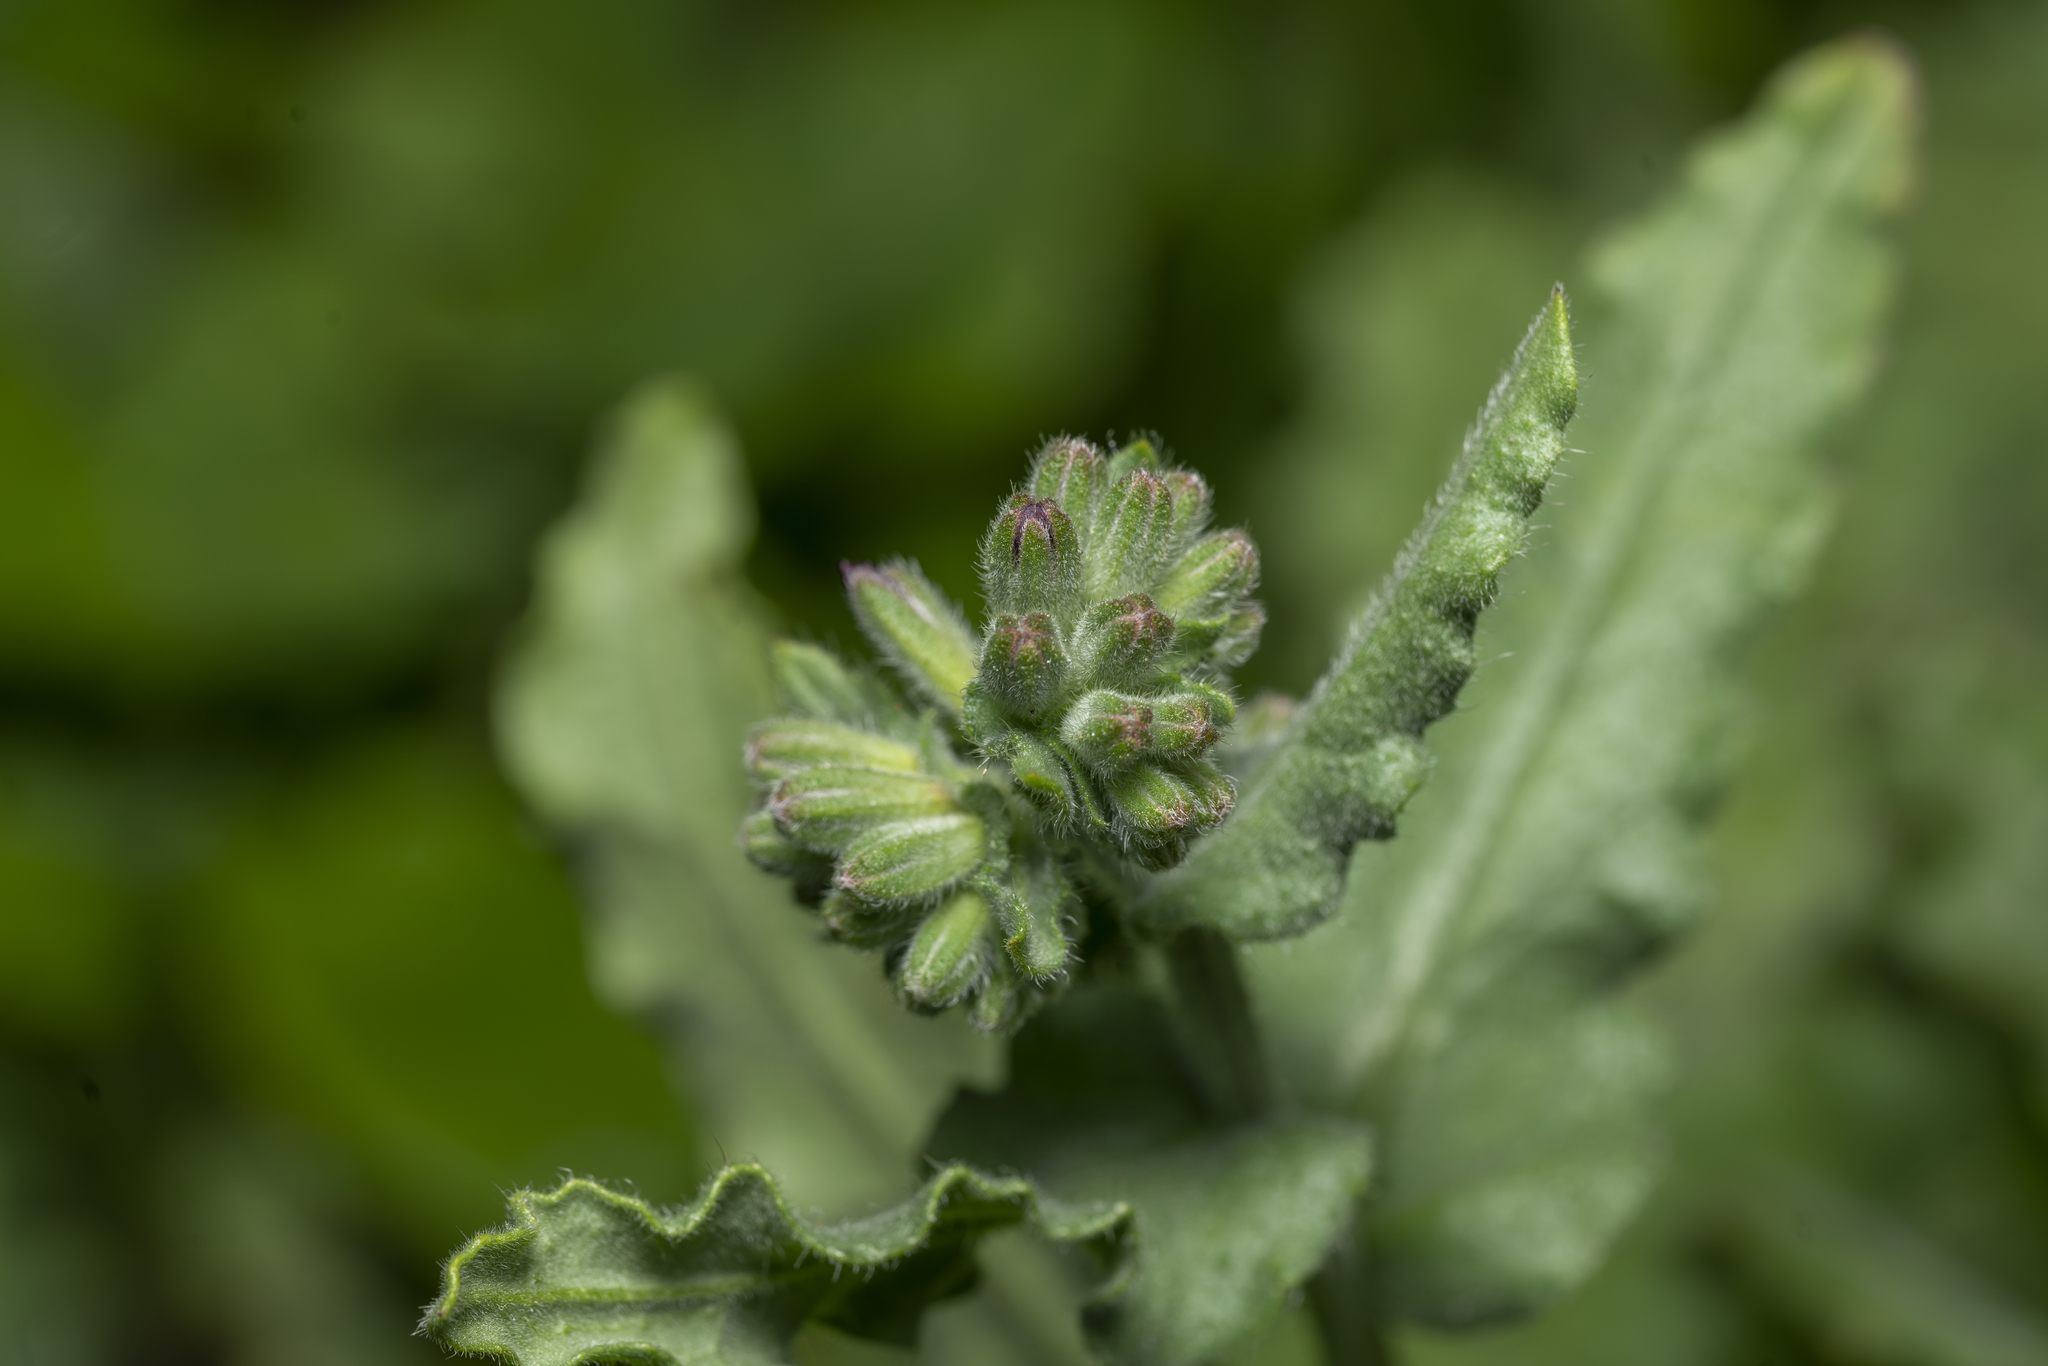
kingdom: Plantae
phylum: Tracheophyta
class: Magnoliopsida
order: Boraginales
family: Boraginaceae
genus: Anchusa
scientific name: Anchusa hybrida
